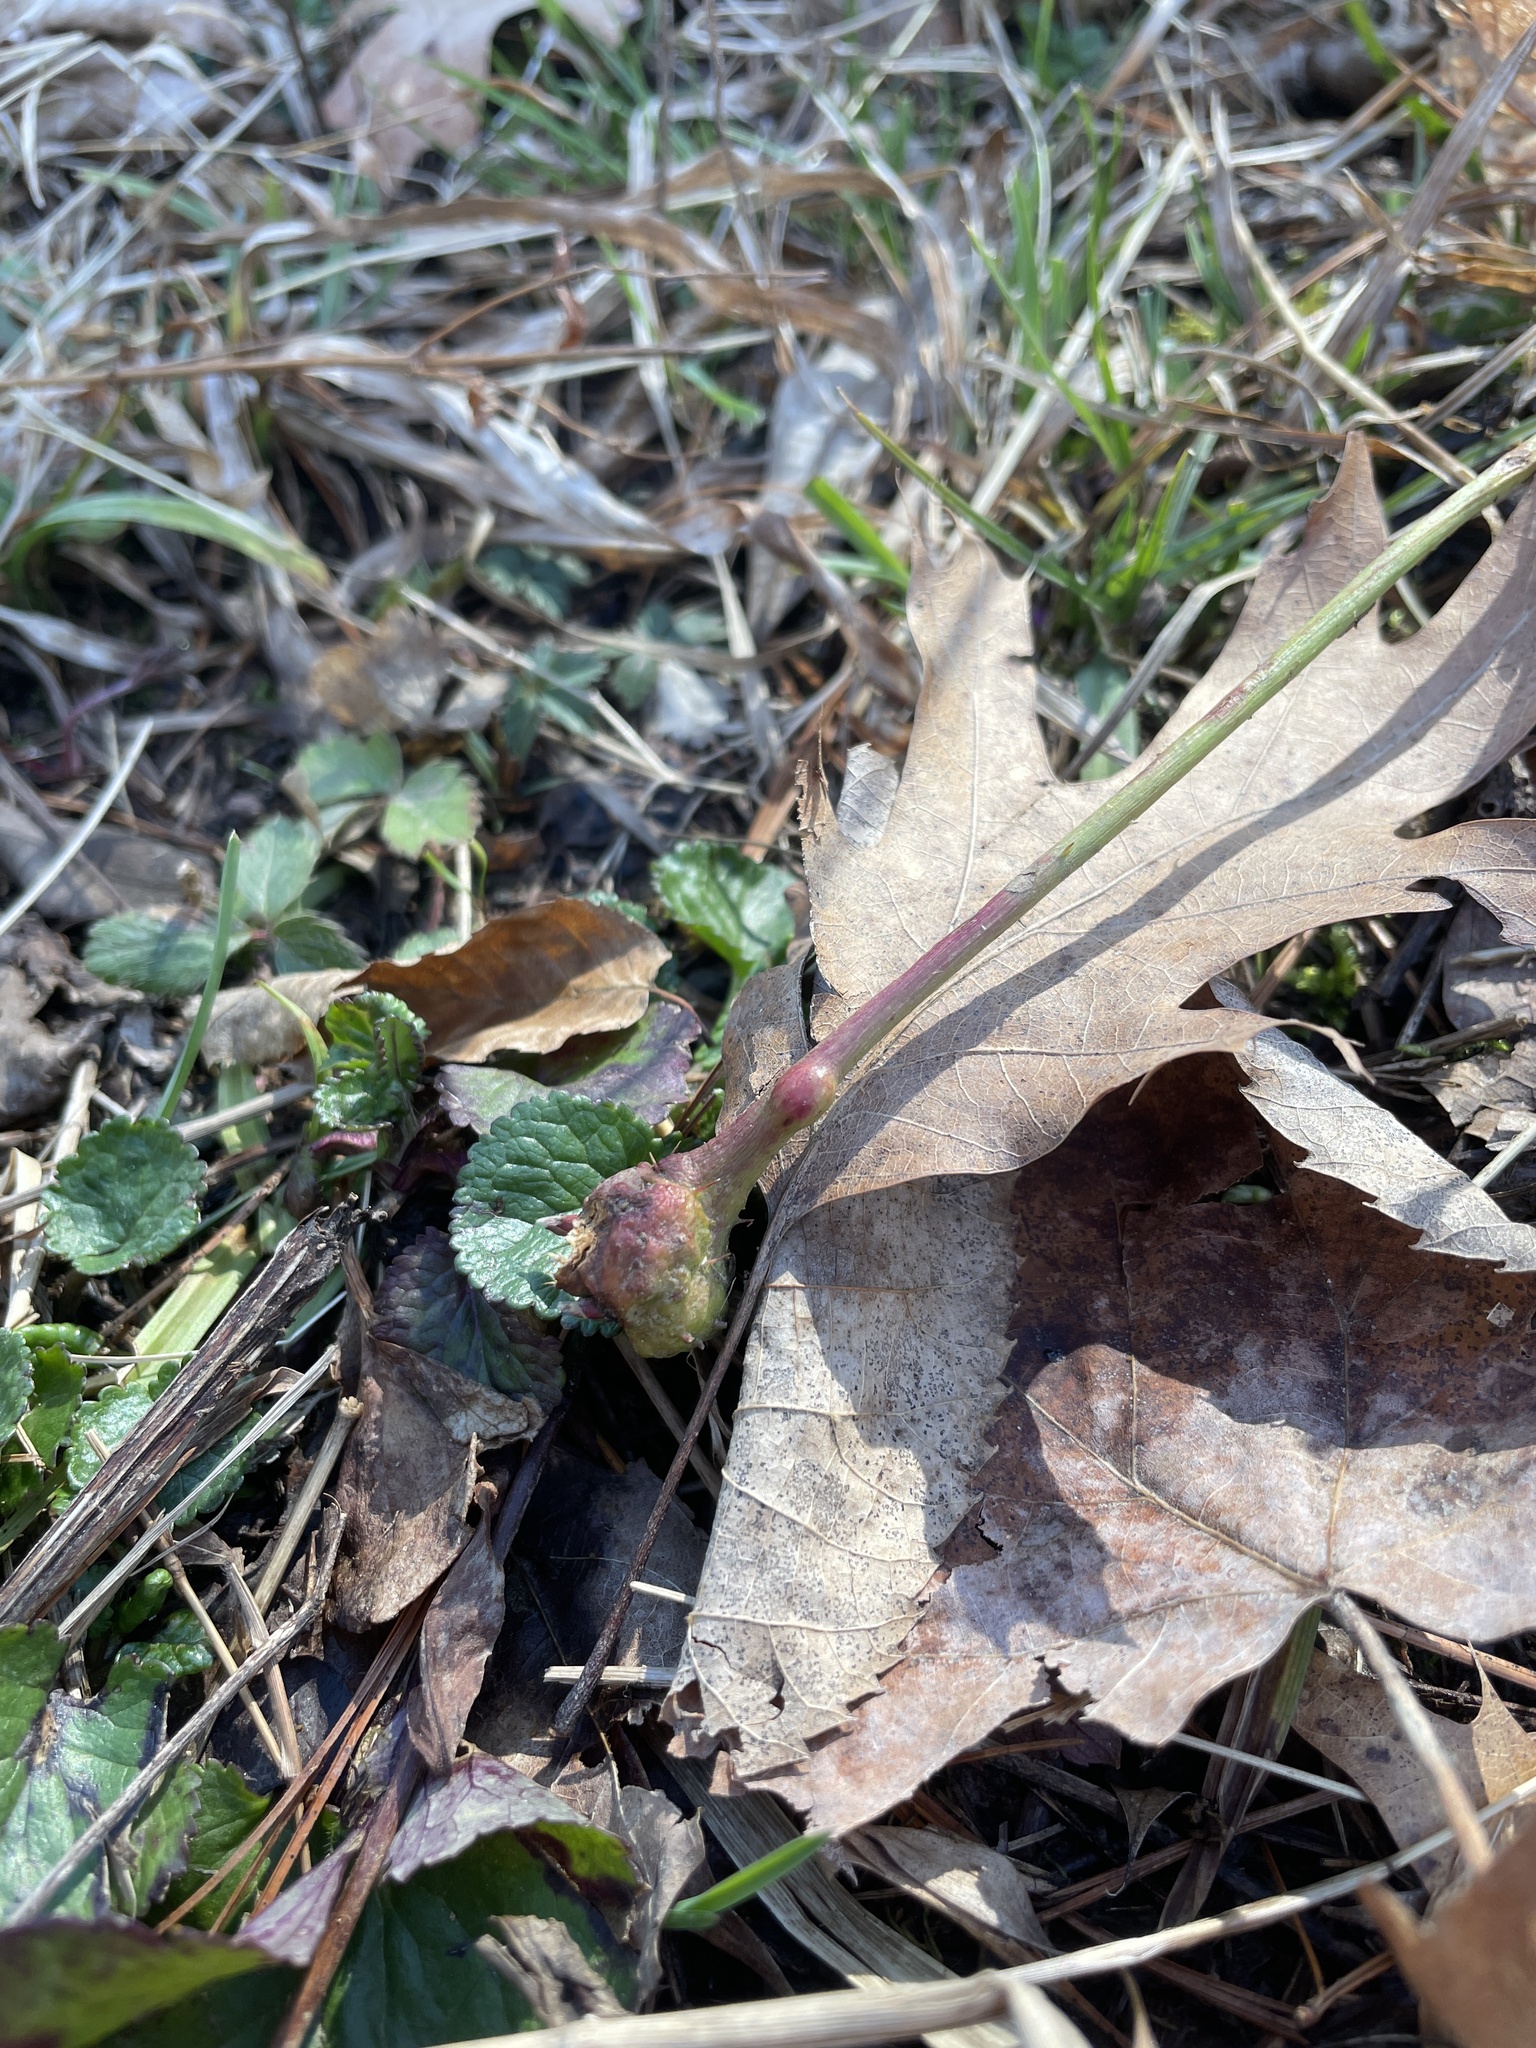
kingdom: Animalia
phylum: Arthropoda
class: Insecta
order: Hymenoptera
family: Cynipidae
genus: Diastrophus
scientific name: Diastrophus
